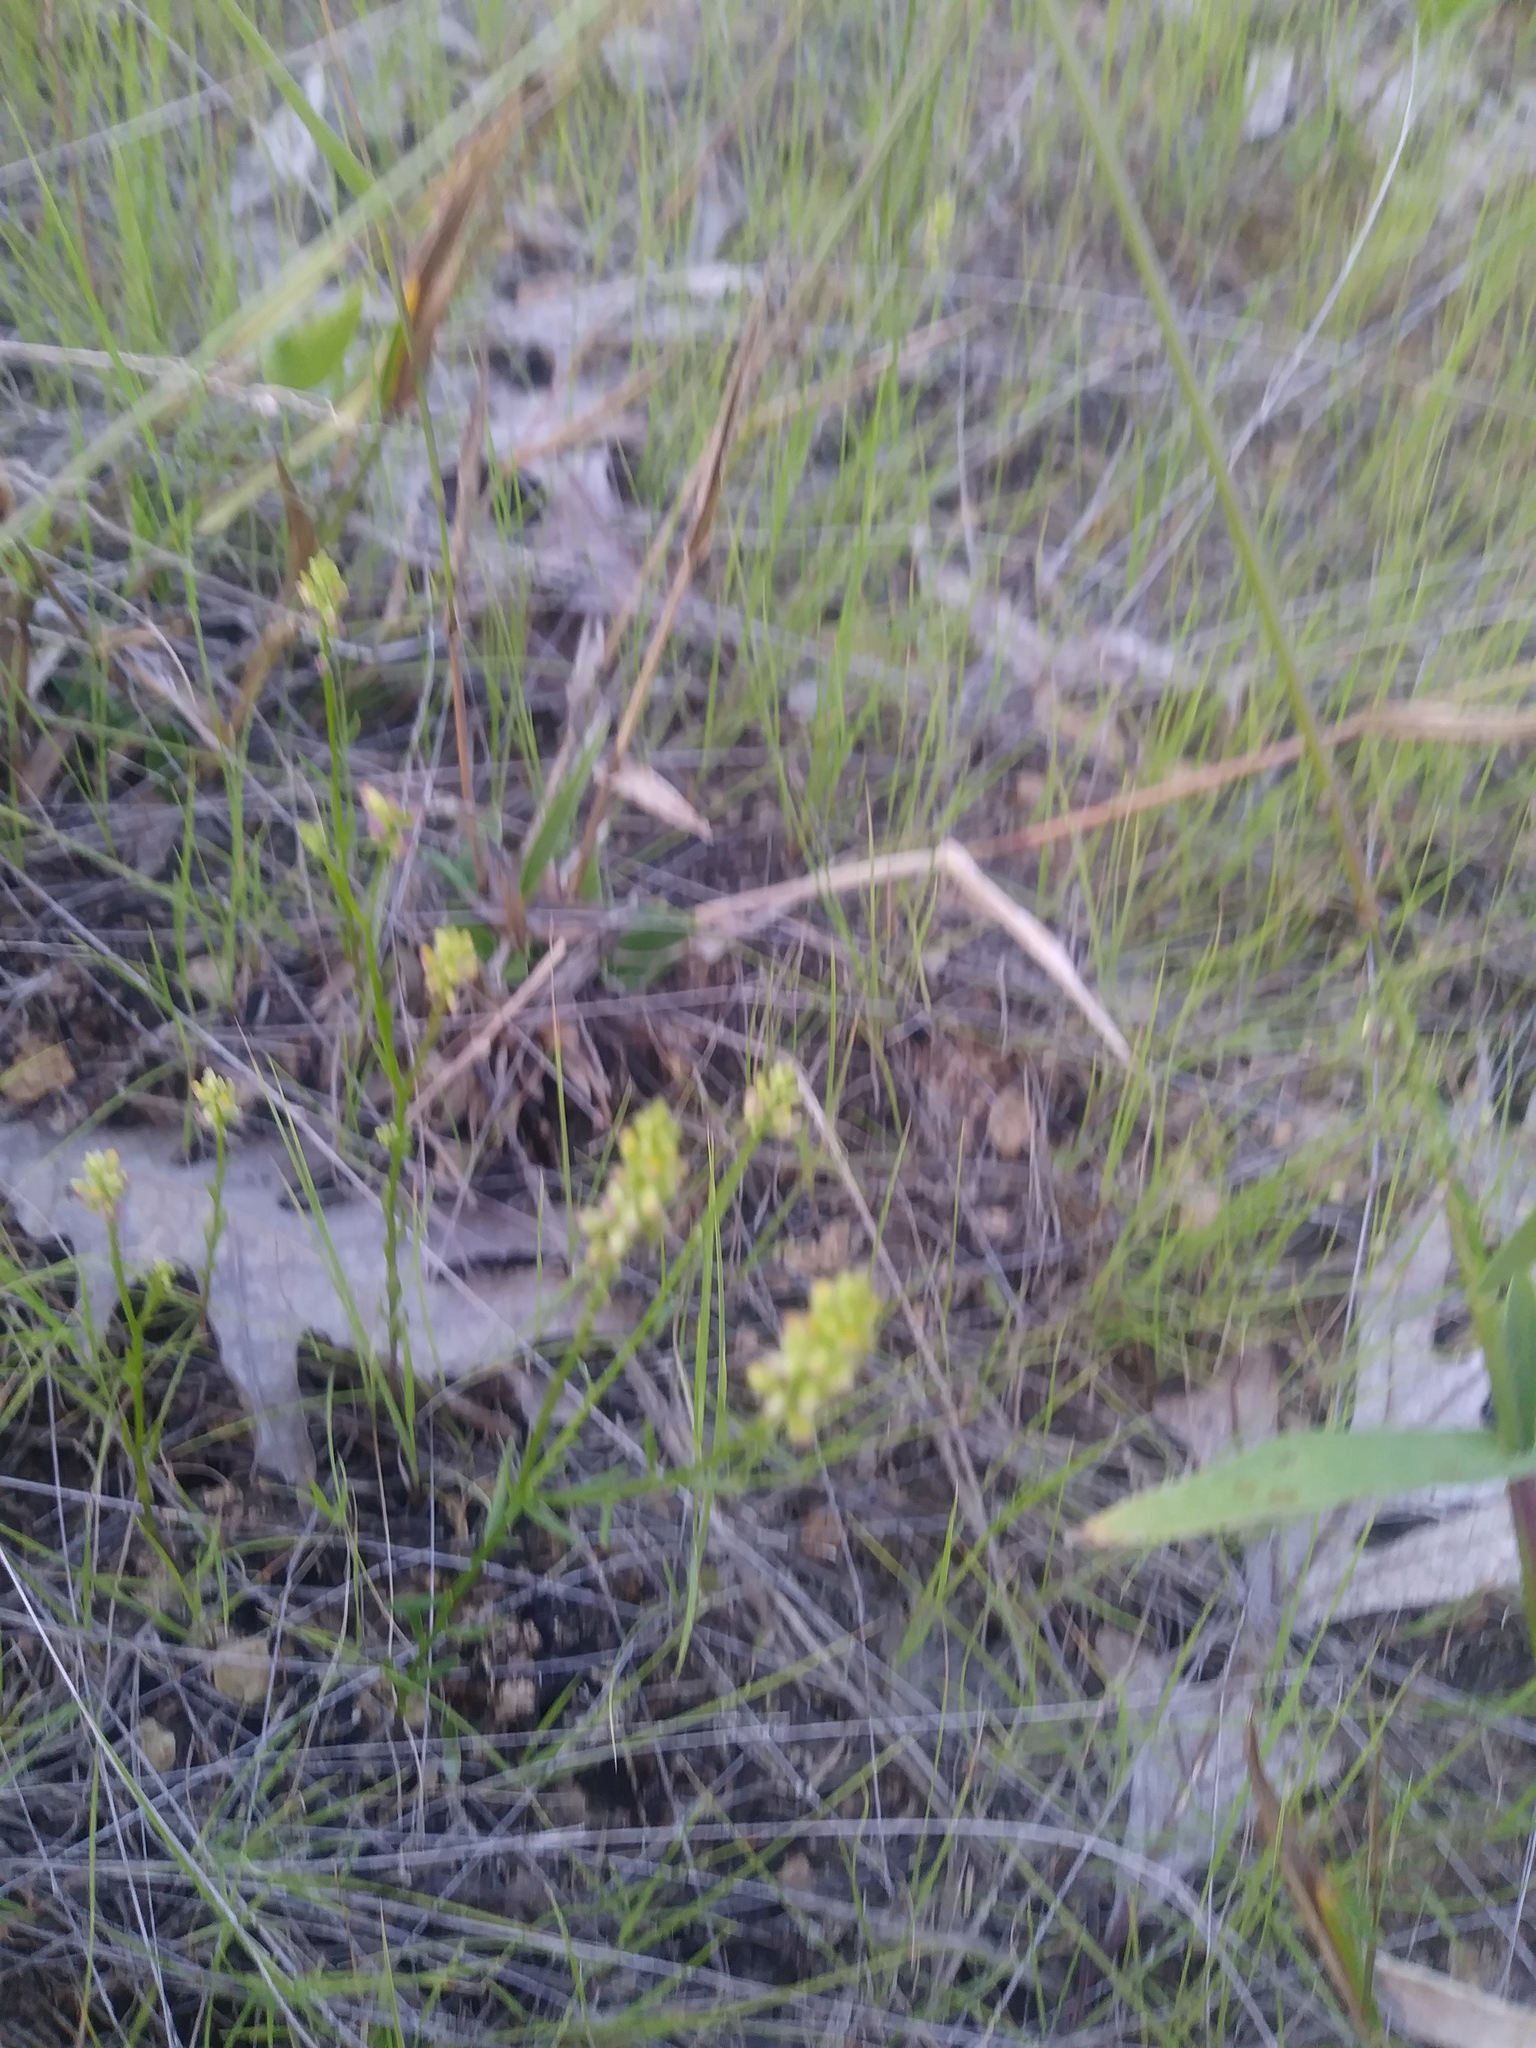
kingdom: Plantae
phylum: Tracheophyta
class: Magnoliopsida
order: Fabales
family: Polygalaceae
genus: Polygala
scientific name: Polygala nuttallii
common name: Nuttall's milkwort
